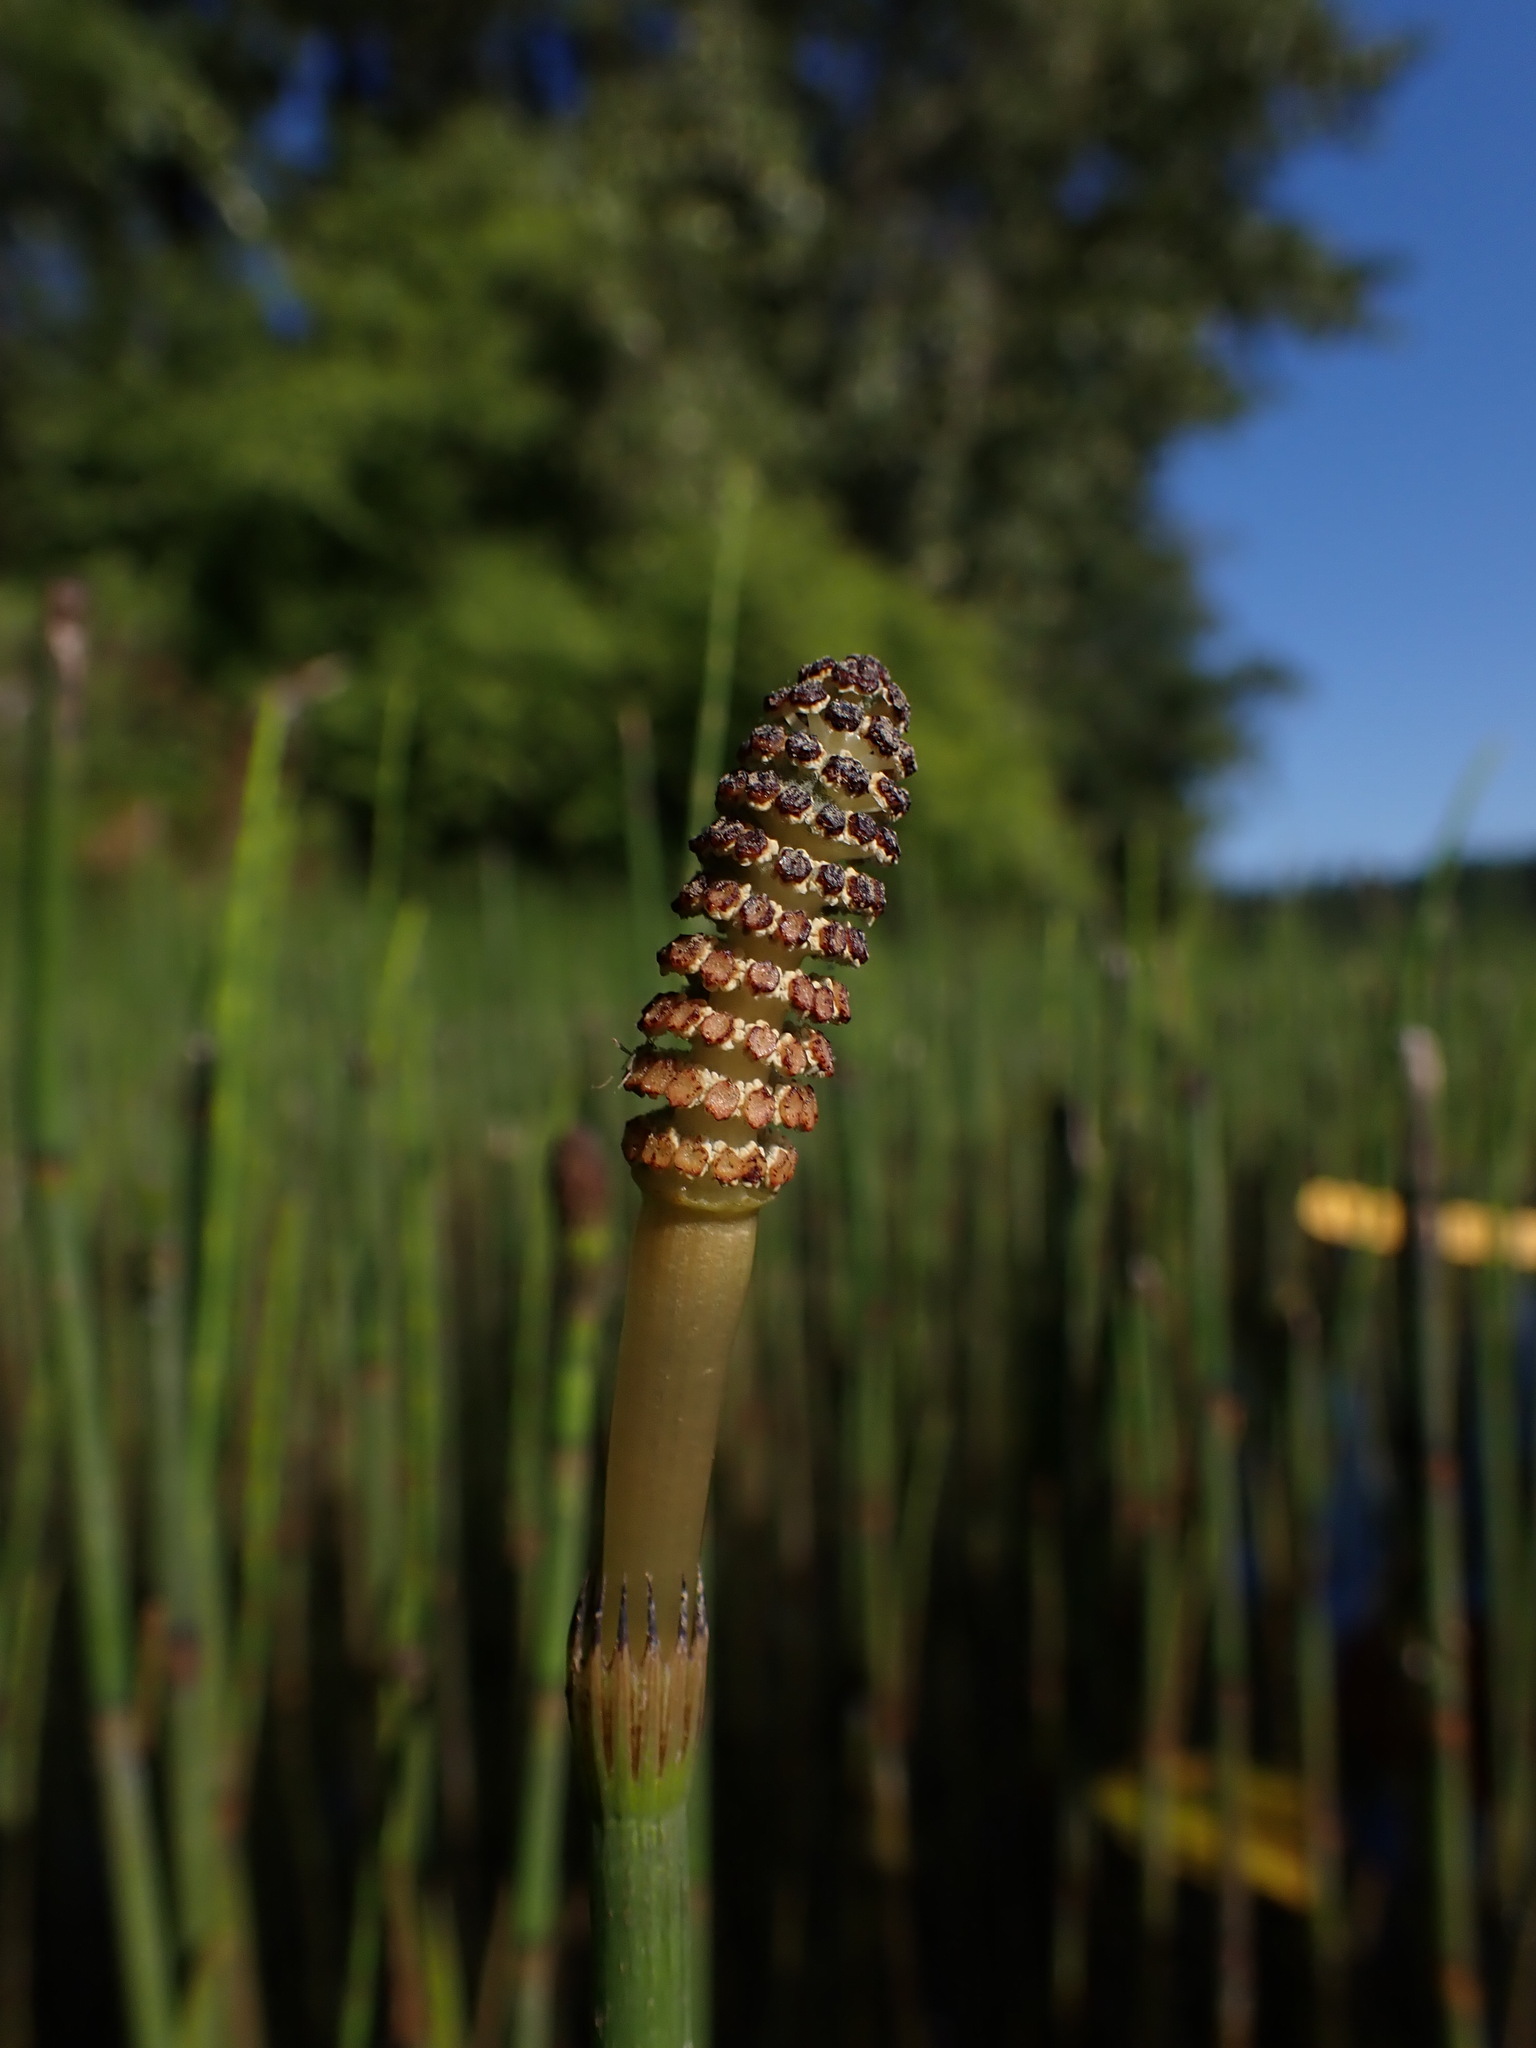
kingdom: Plantae
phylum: Tracheophyta
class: Polypodiopsida
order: Equisetales
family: Equisetaceae
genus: Equisetum
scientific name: Equisetum fluviatile
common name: Water horsetail
